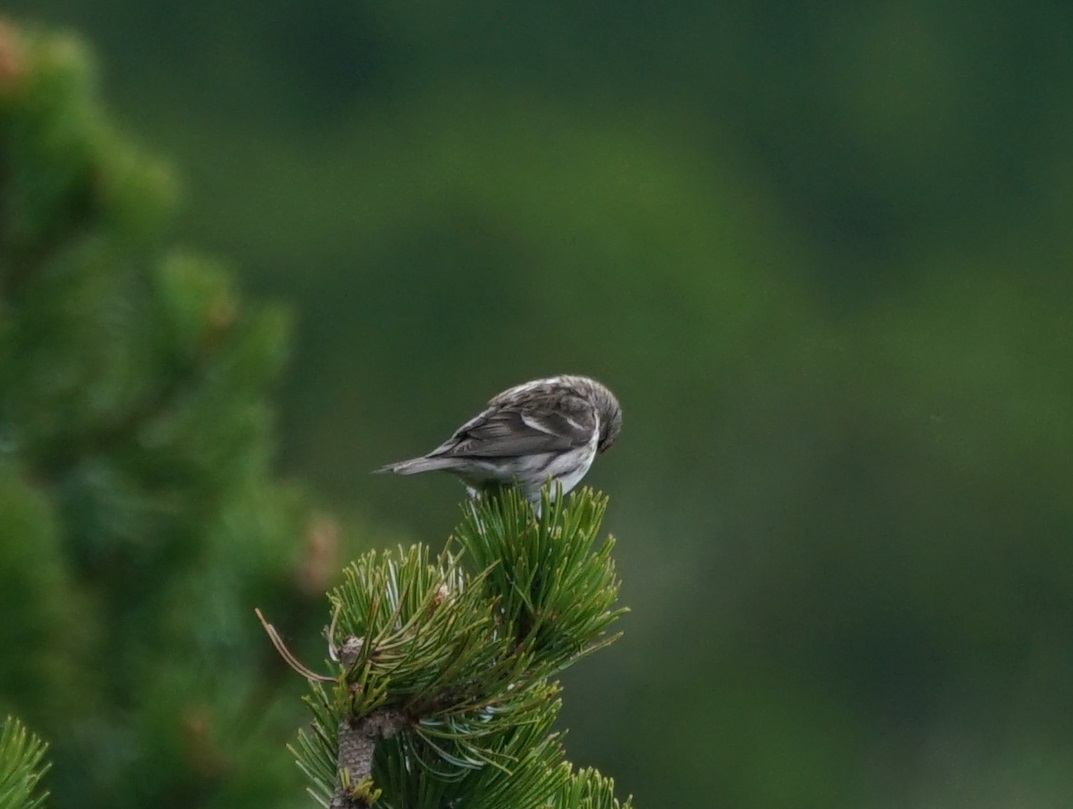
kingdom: Animalia
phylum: Chordata
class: Aves
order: Passeriformes
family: Fringillidae
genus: Acanthis
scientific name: Acanthis flammea
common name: Common redpoll
